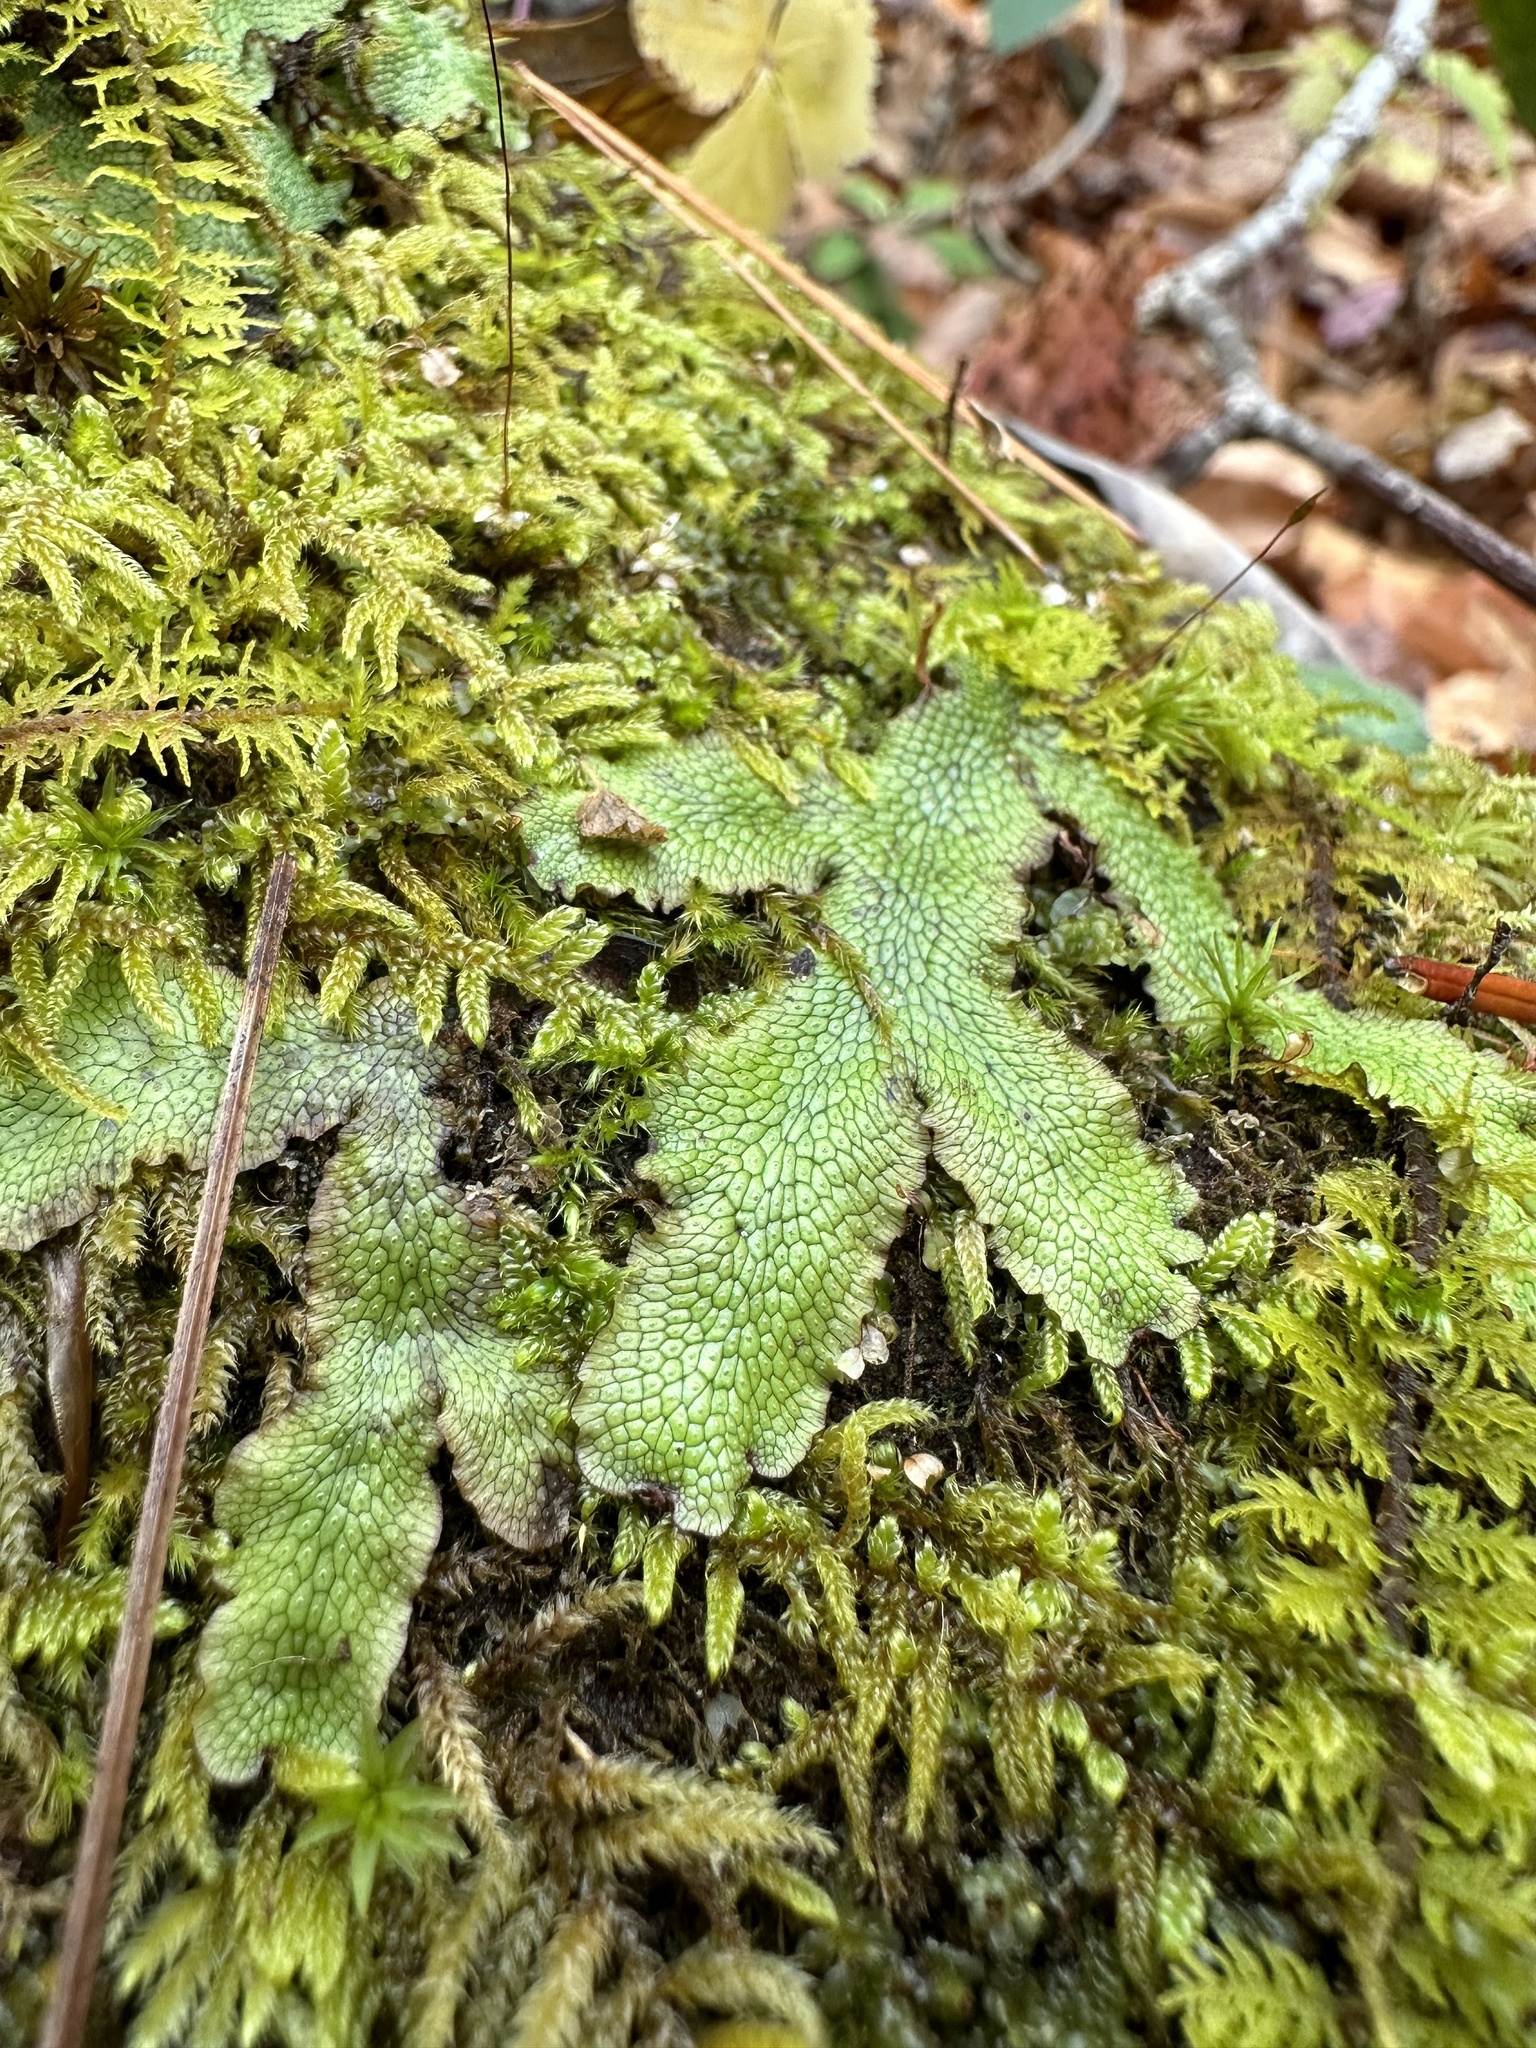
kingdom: Plantae
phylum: Marchantiophyta
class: Marchantiopsida
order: Marchantiales
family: Conocephalaceae
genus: Conocephalum
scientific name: Conocephalum salebrosum
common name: Cat-tongue liverwort
